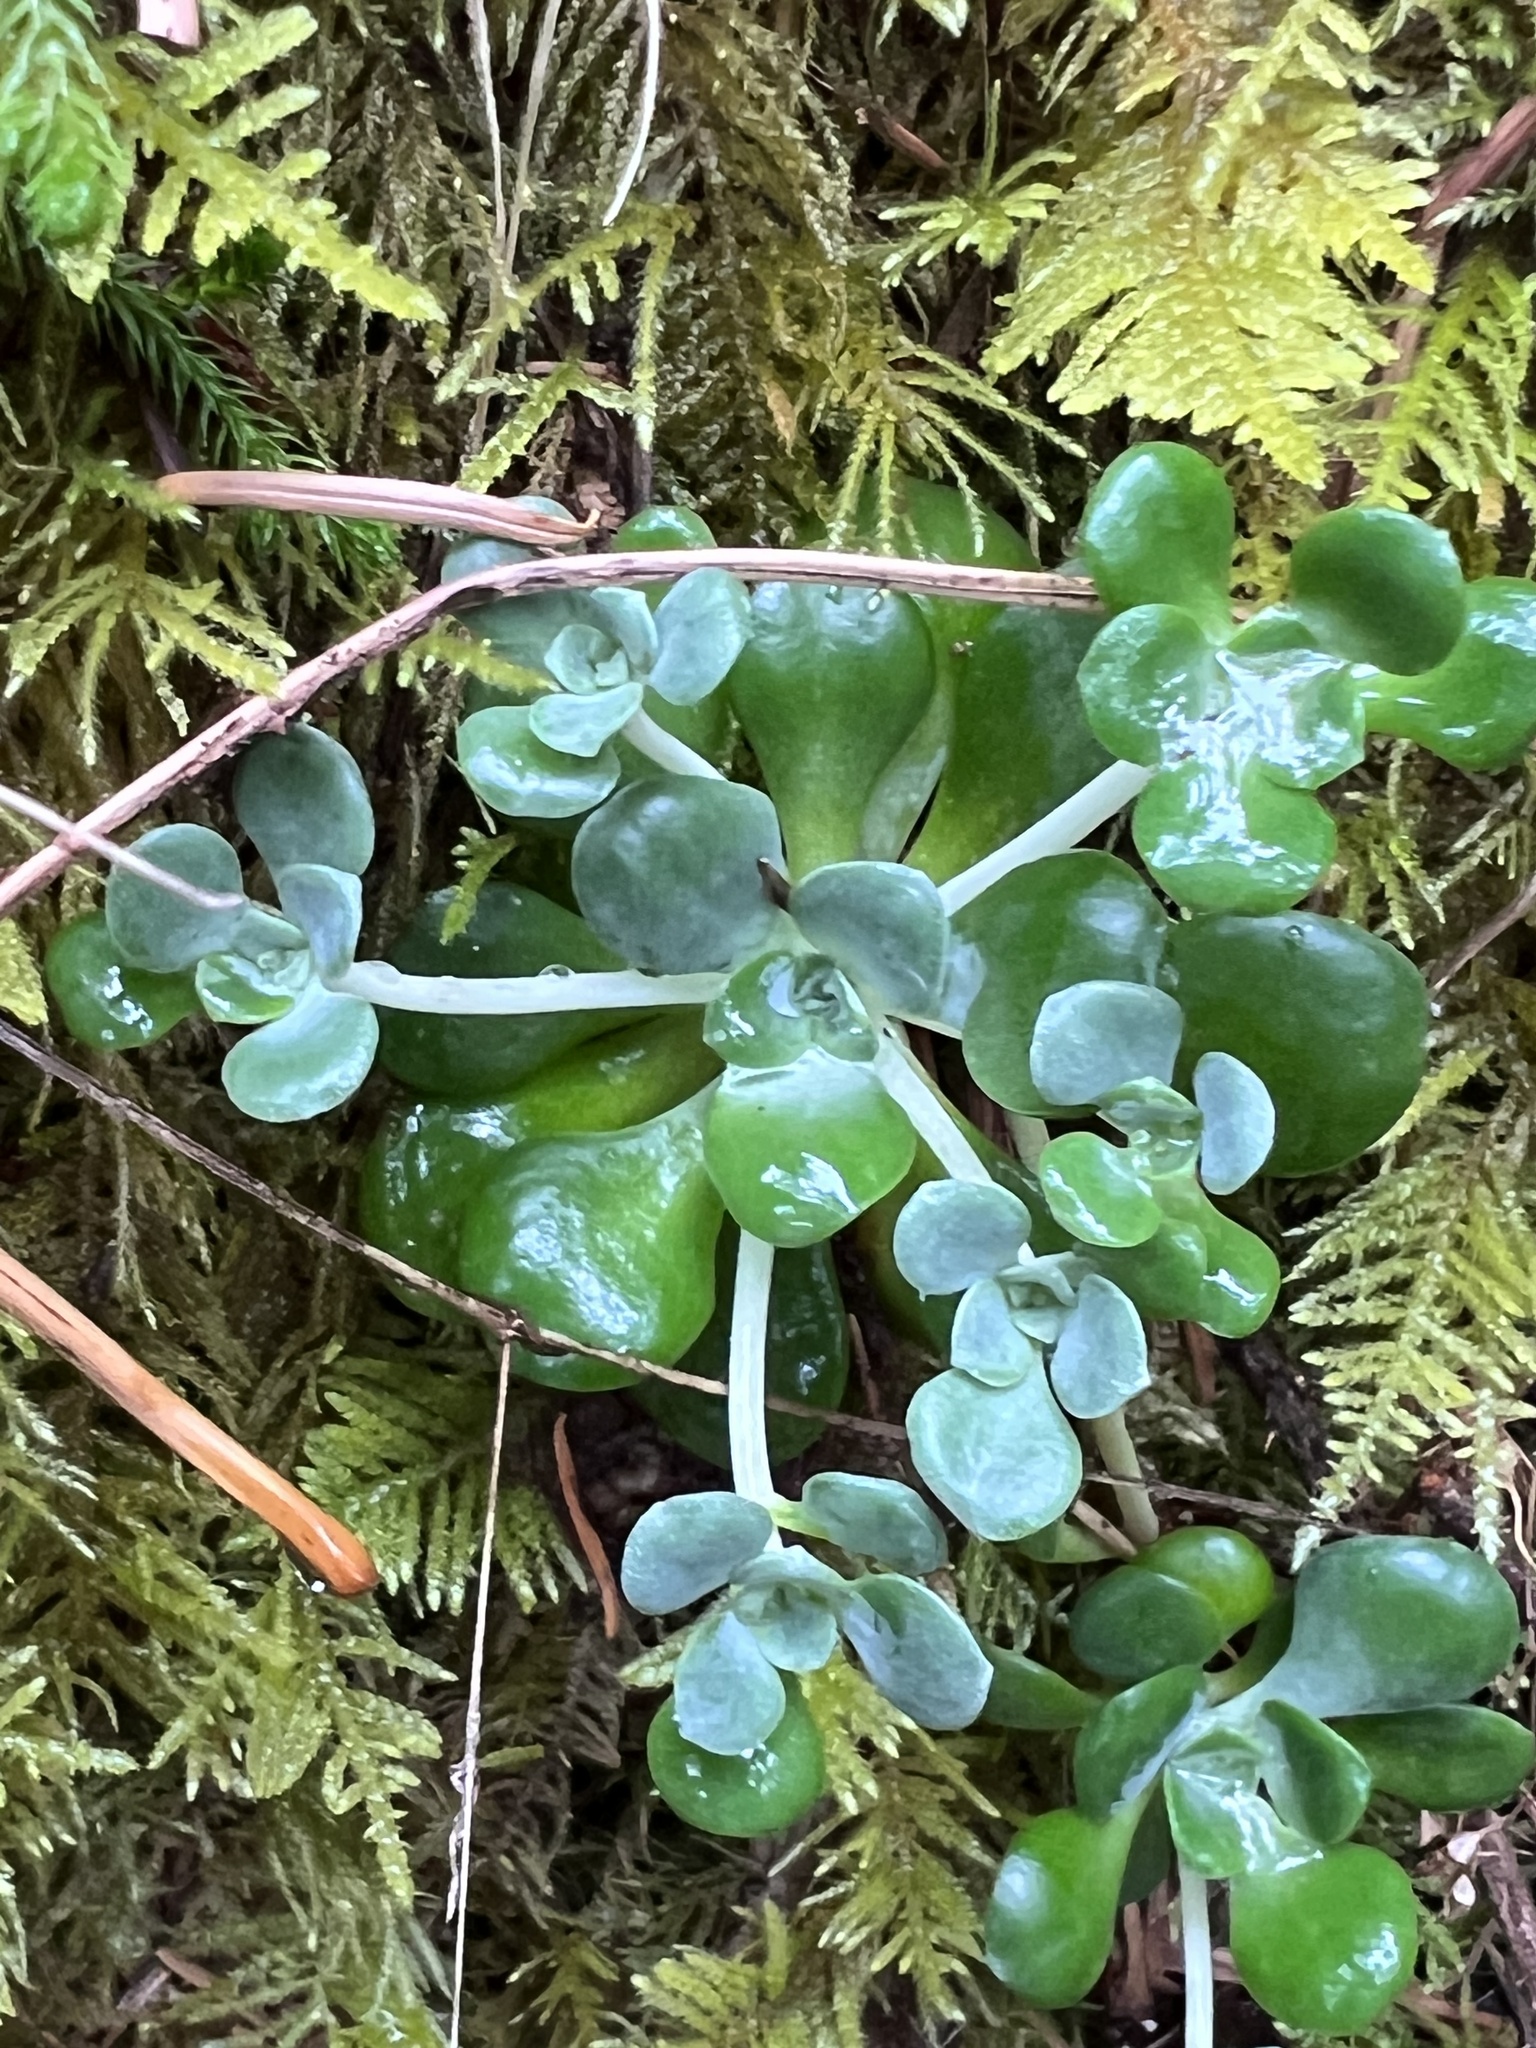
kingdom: Plantae
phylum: Tracheophyta
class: Magnoliopsida
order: Saxifragales
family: Crassulaceae
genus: Sedum
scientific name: Sedum spathulifolium
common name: Colorado stonecrop
